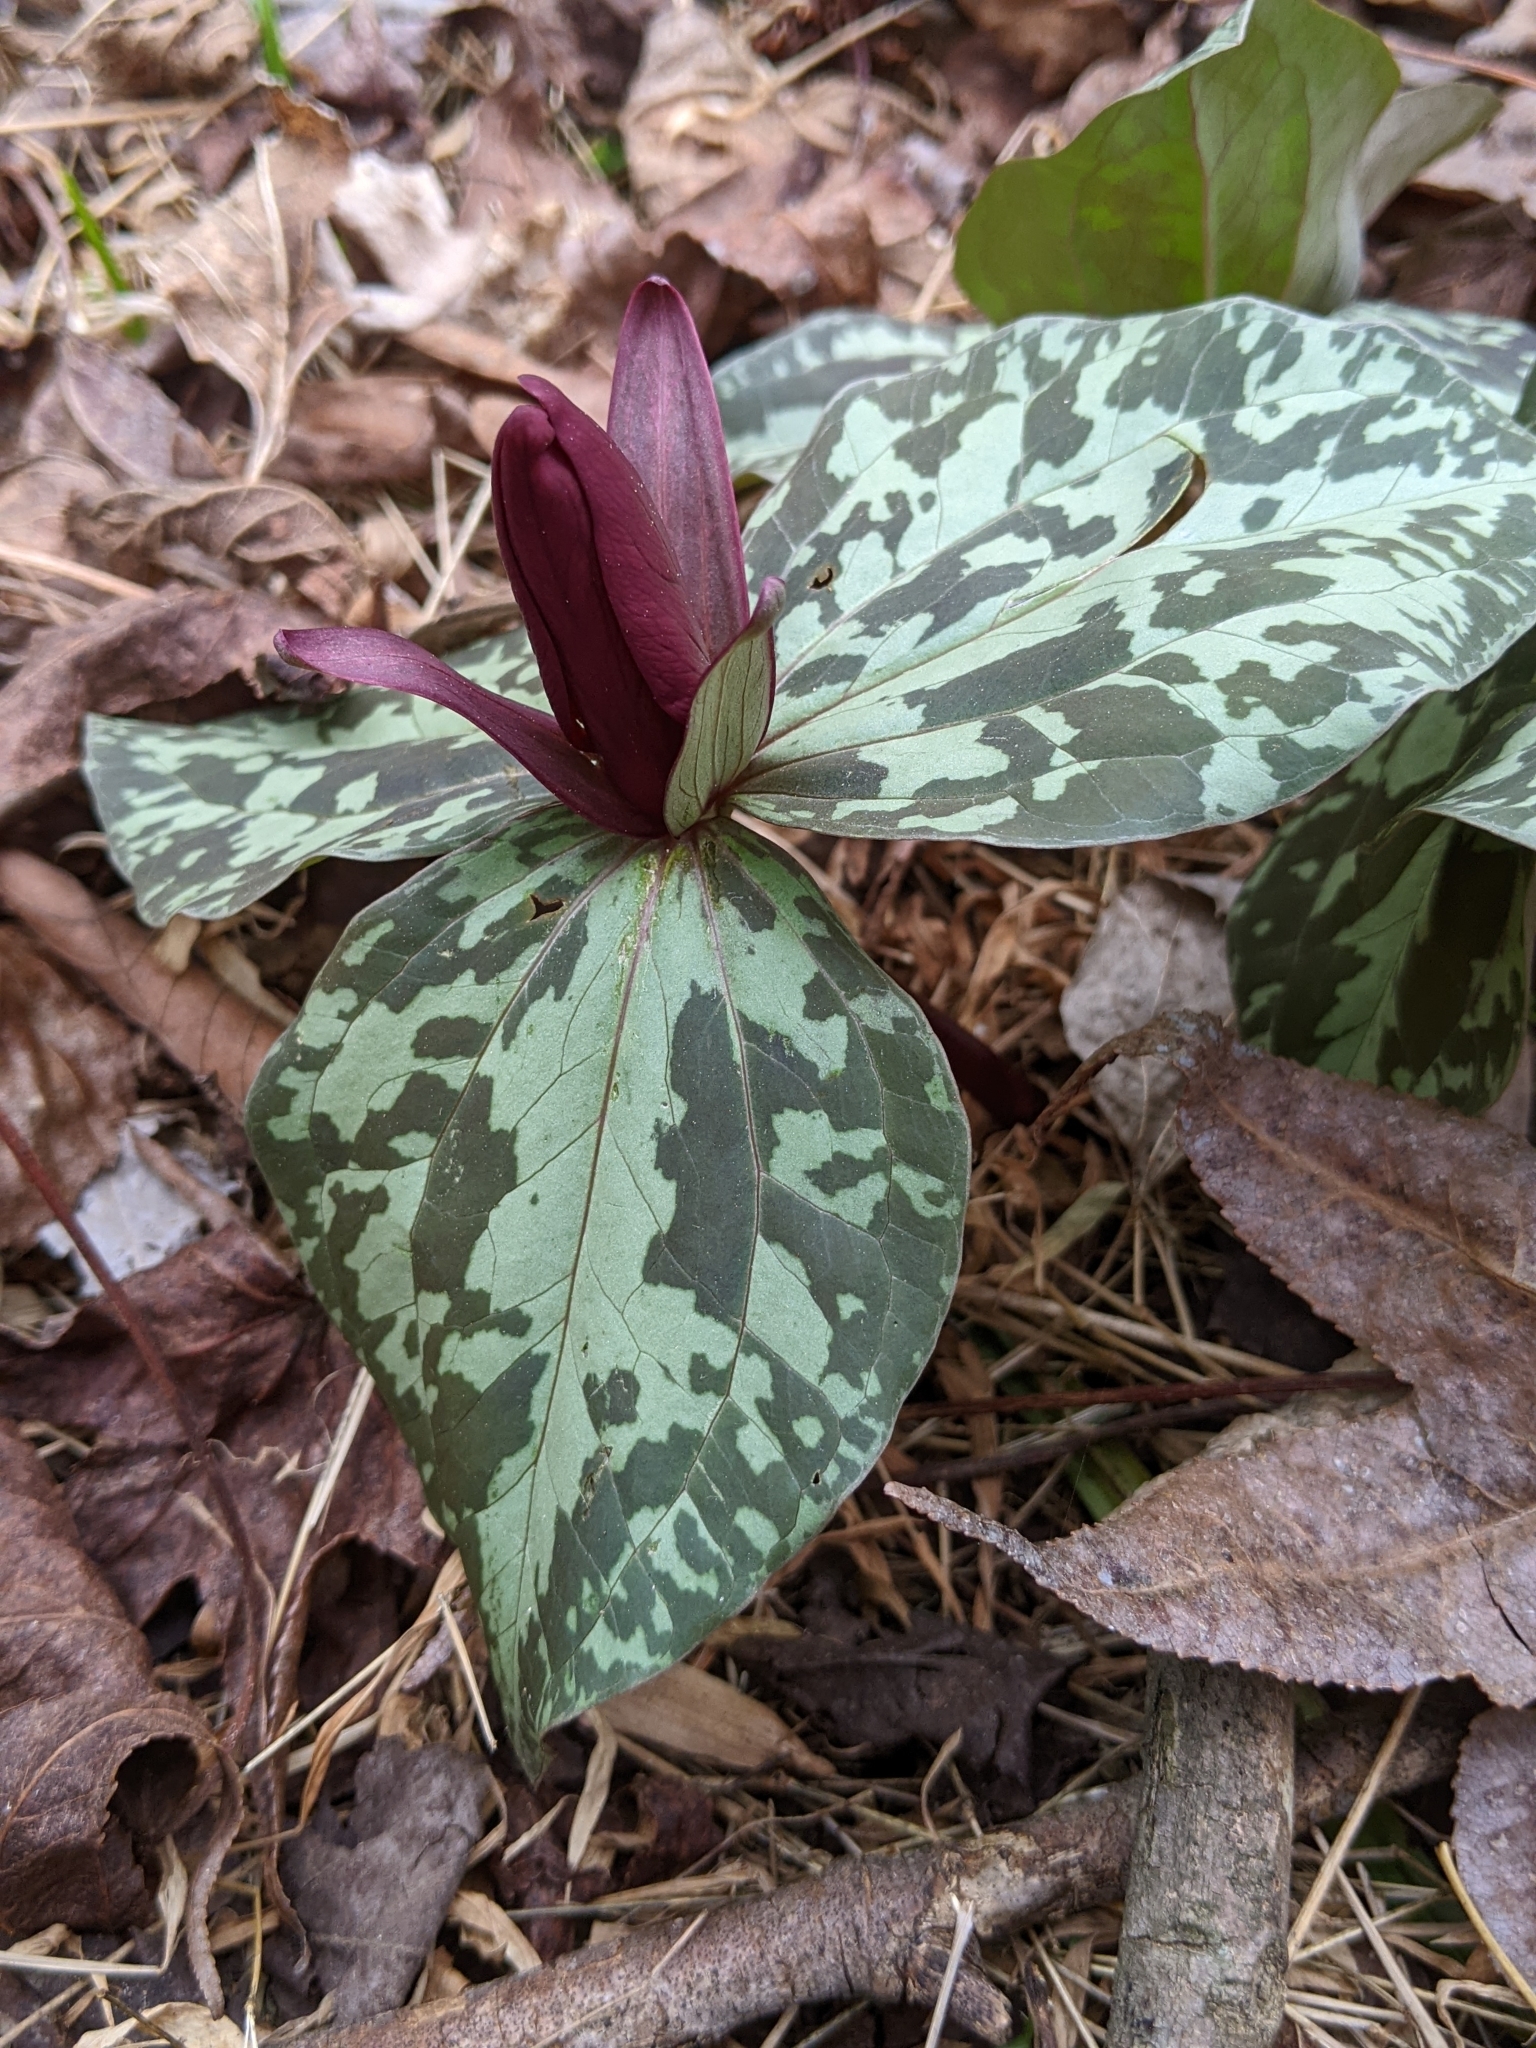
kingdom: Plantae
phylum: Tracheophyta
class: Liliopsida
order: Liliales
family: Melanthiaceae
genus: Trillium
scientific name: Trillium cuneatum
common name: Cuneate trillium
